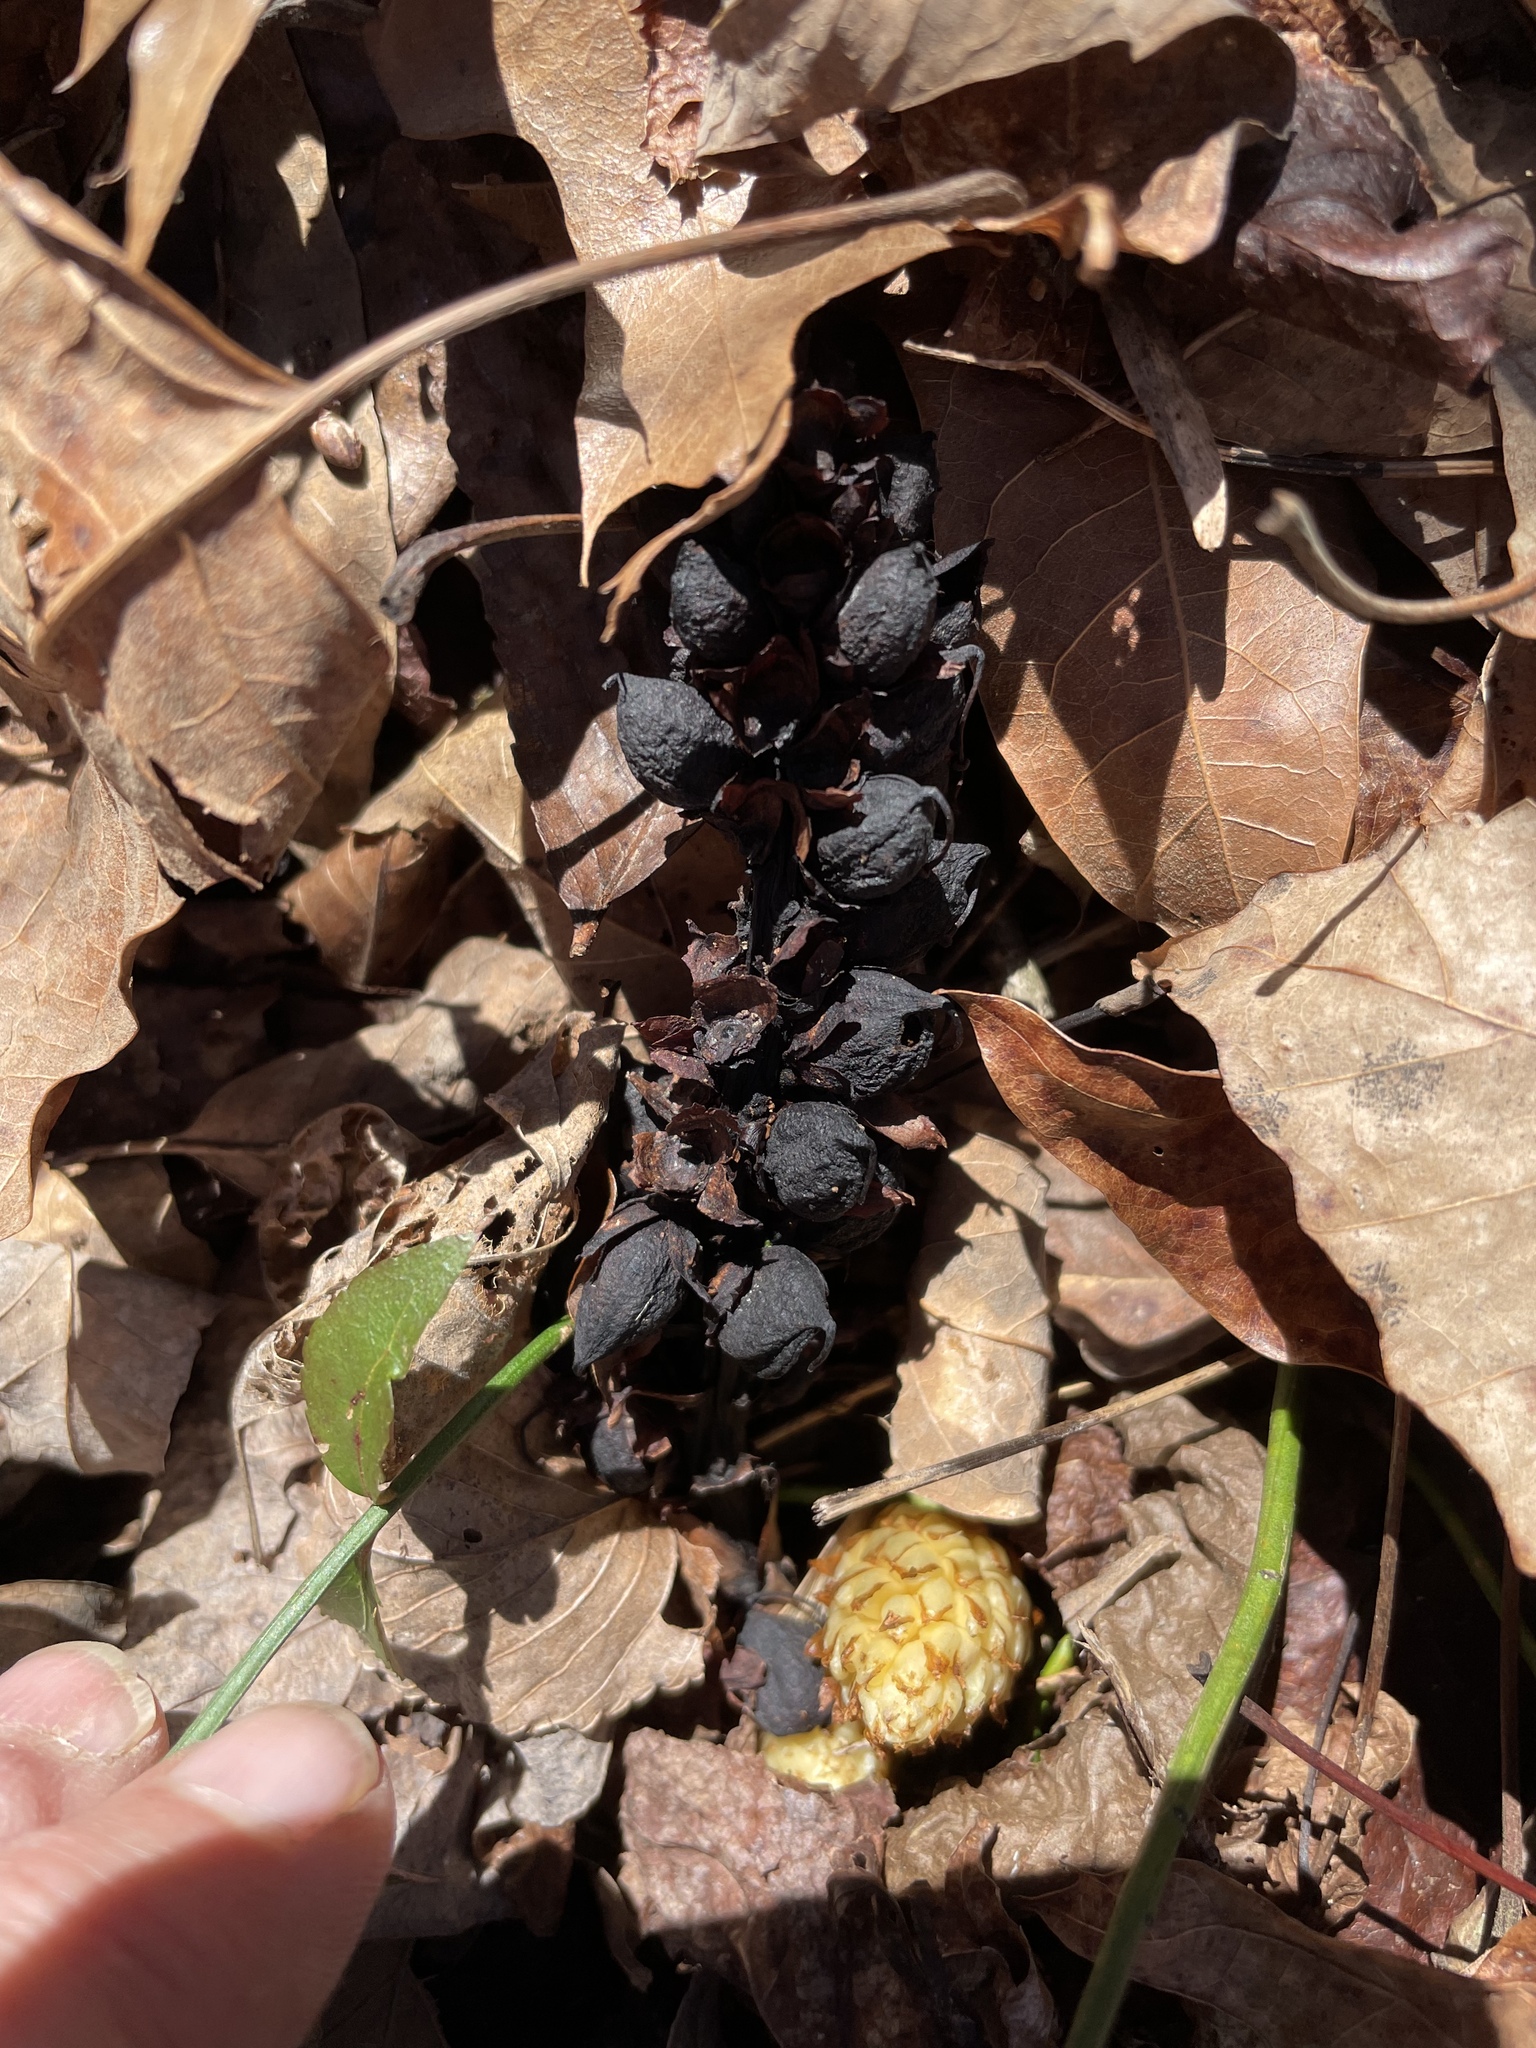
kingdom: Plantae
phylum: Tracheophyta
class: Magnoliopsida
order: Lamiales
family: Orobanchaceae
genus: Conopholis
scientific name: Conopholis americana
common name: American cancer-root
